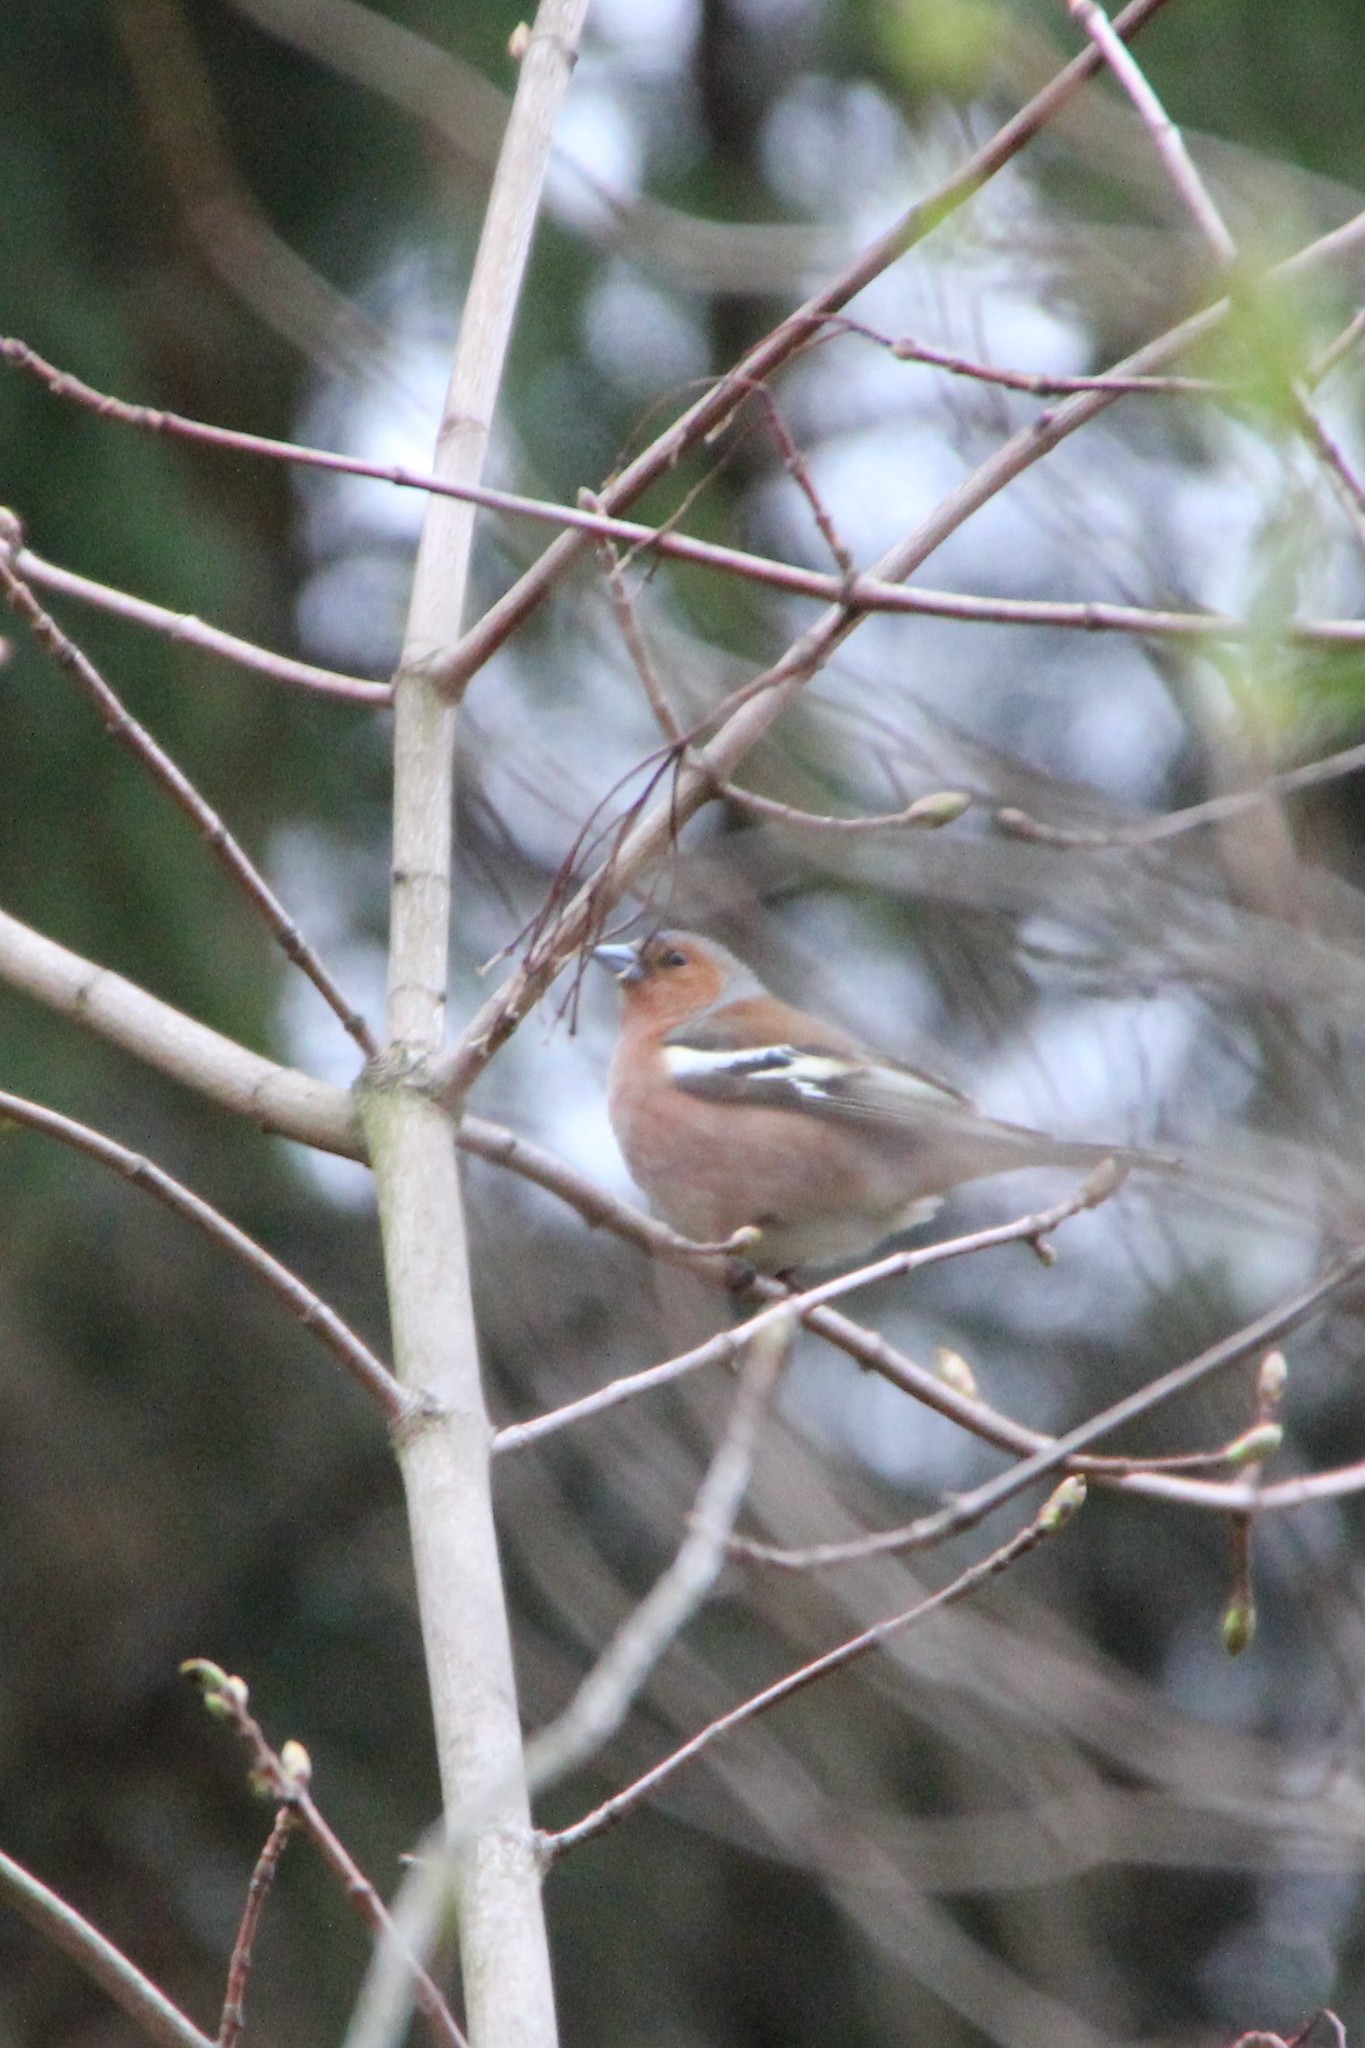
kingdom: Animalia
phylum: Chordata
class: Aves
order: Passeriformes
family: Fringillidae
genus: Fringilla
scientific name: Fringilla coelebs
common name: Common chaffinch
